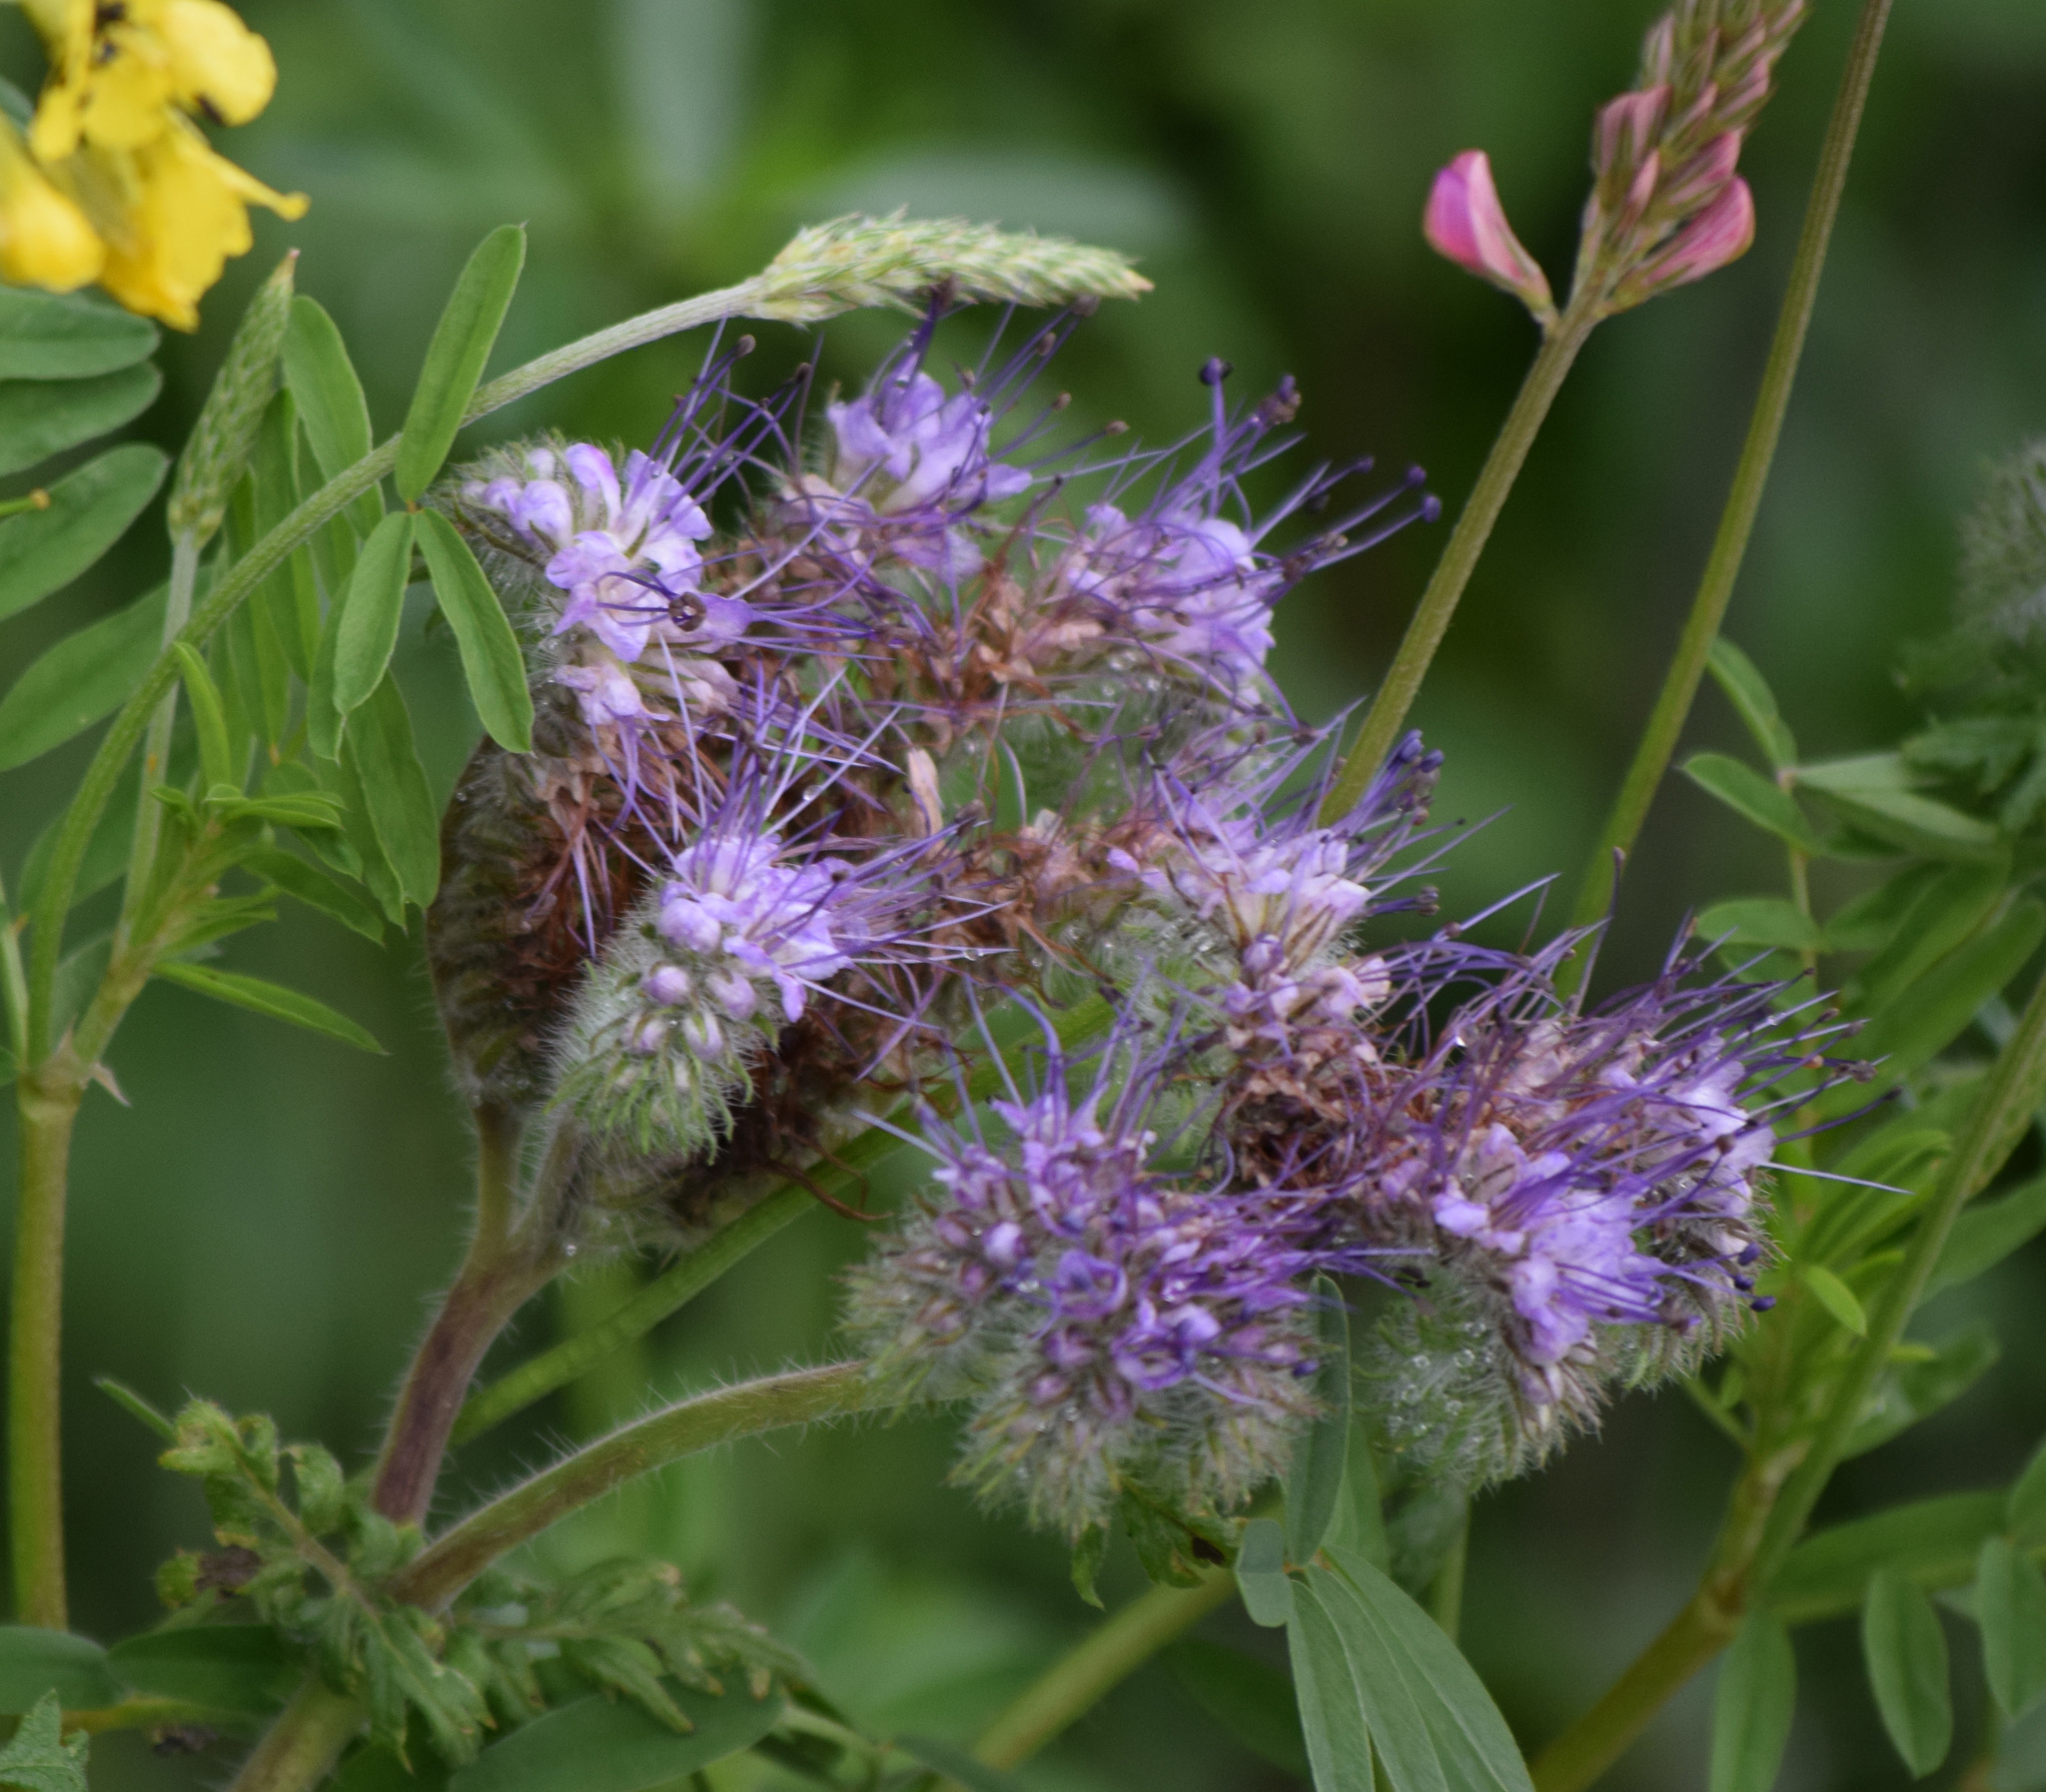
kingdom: Plantae
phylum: Tracheophyta
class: Magnoliopsida
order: Boraginales
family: Hydrophyllaceae
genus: Phacelia
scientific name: Phacelia tanacetifolia
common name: Phacelia
